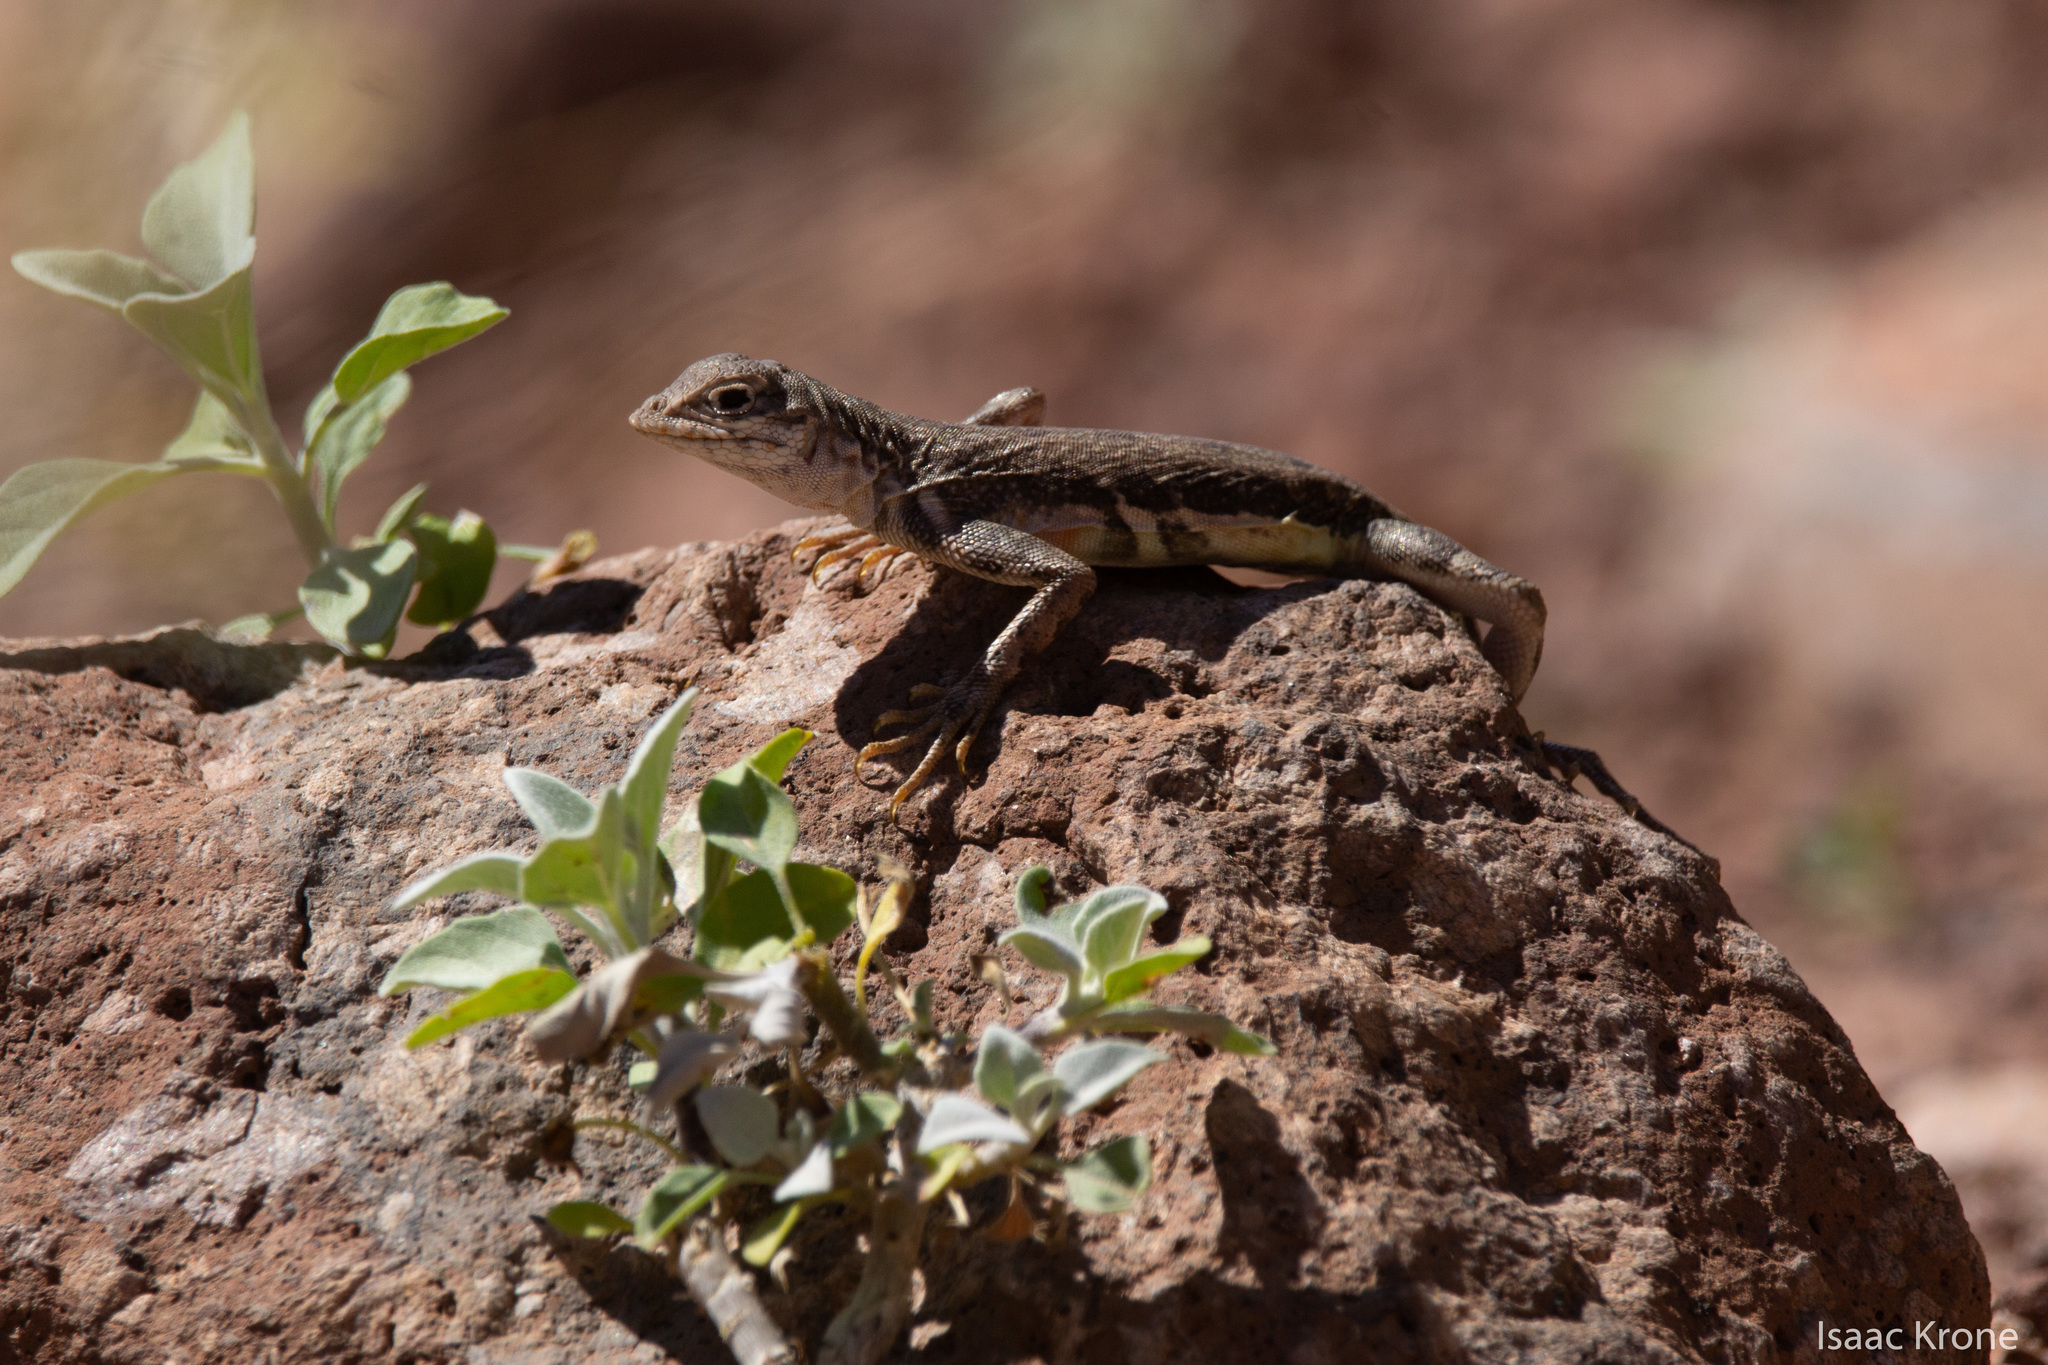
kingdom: Animalia
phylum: Chordata
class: Squamata
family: Phrynosomatidae
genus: Callisaurus
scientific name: Callisaurus draconoides
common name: Zebra-tailed lizard
